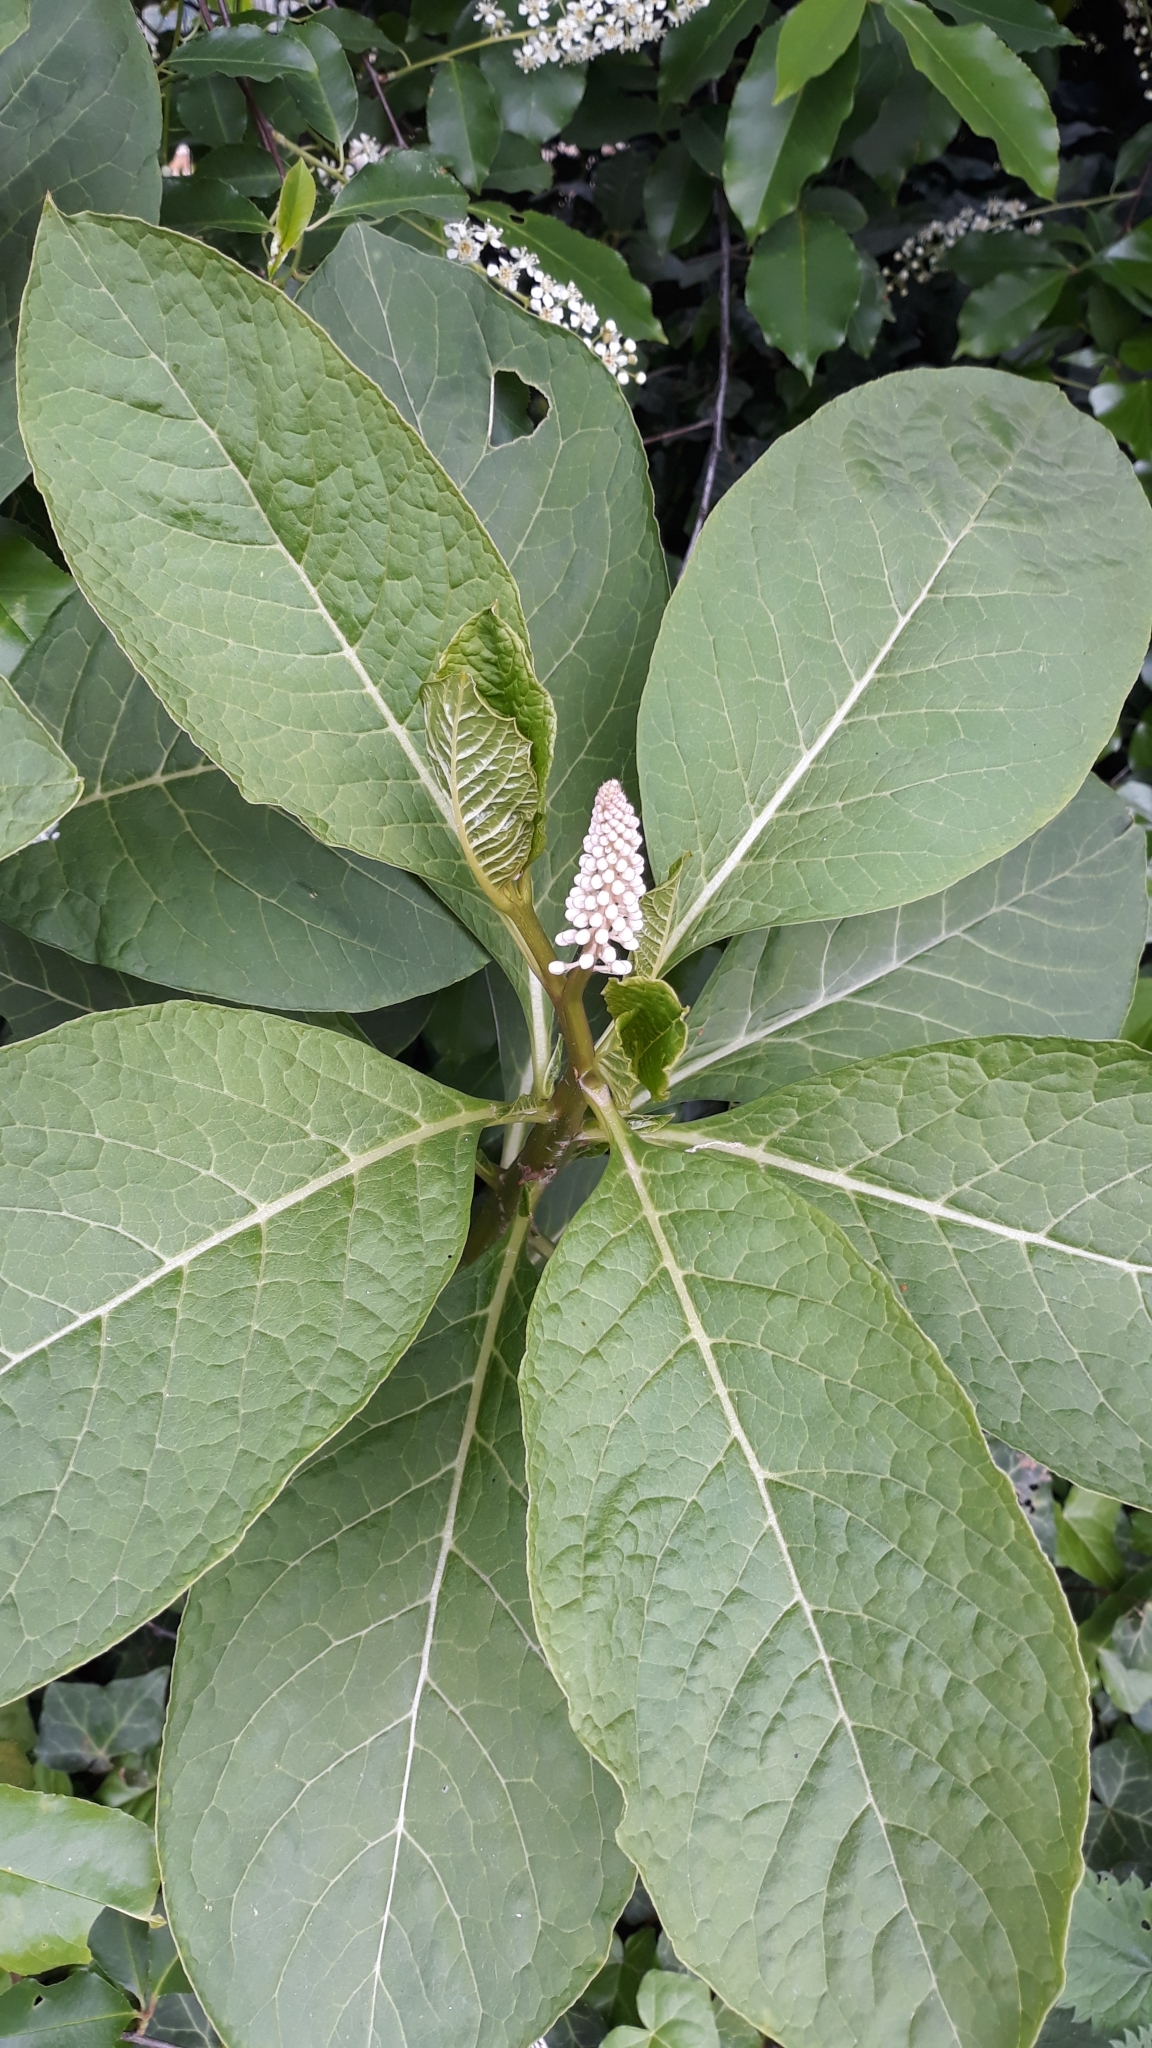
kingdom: Plantae
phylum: Tracheophyta
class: Magnoliopsida
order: Caryophyllales
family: Phytolaccaceae
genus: Phytolacca
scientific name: Phytolacca acinosa
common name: Indian pokeweed
